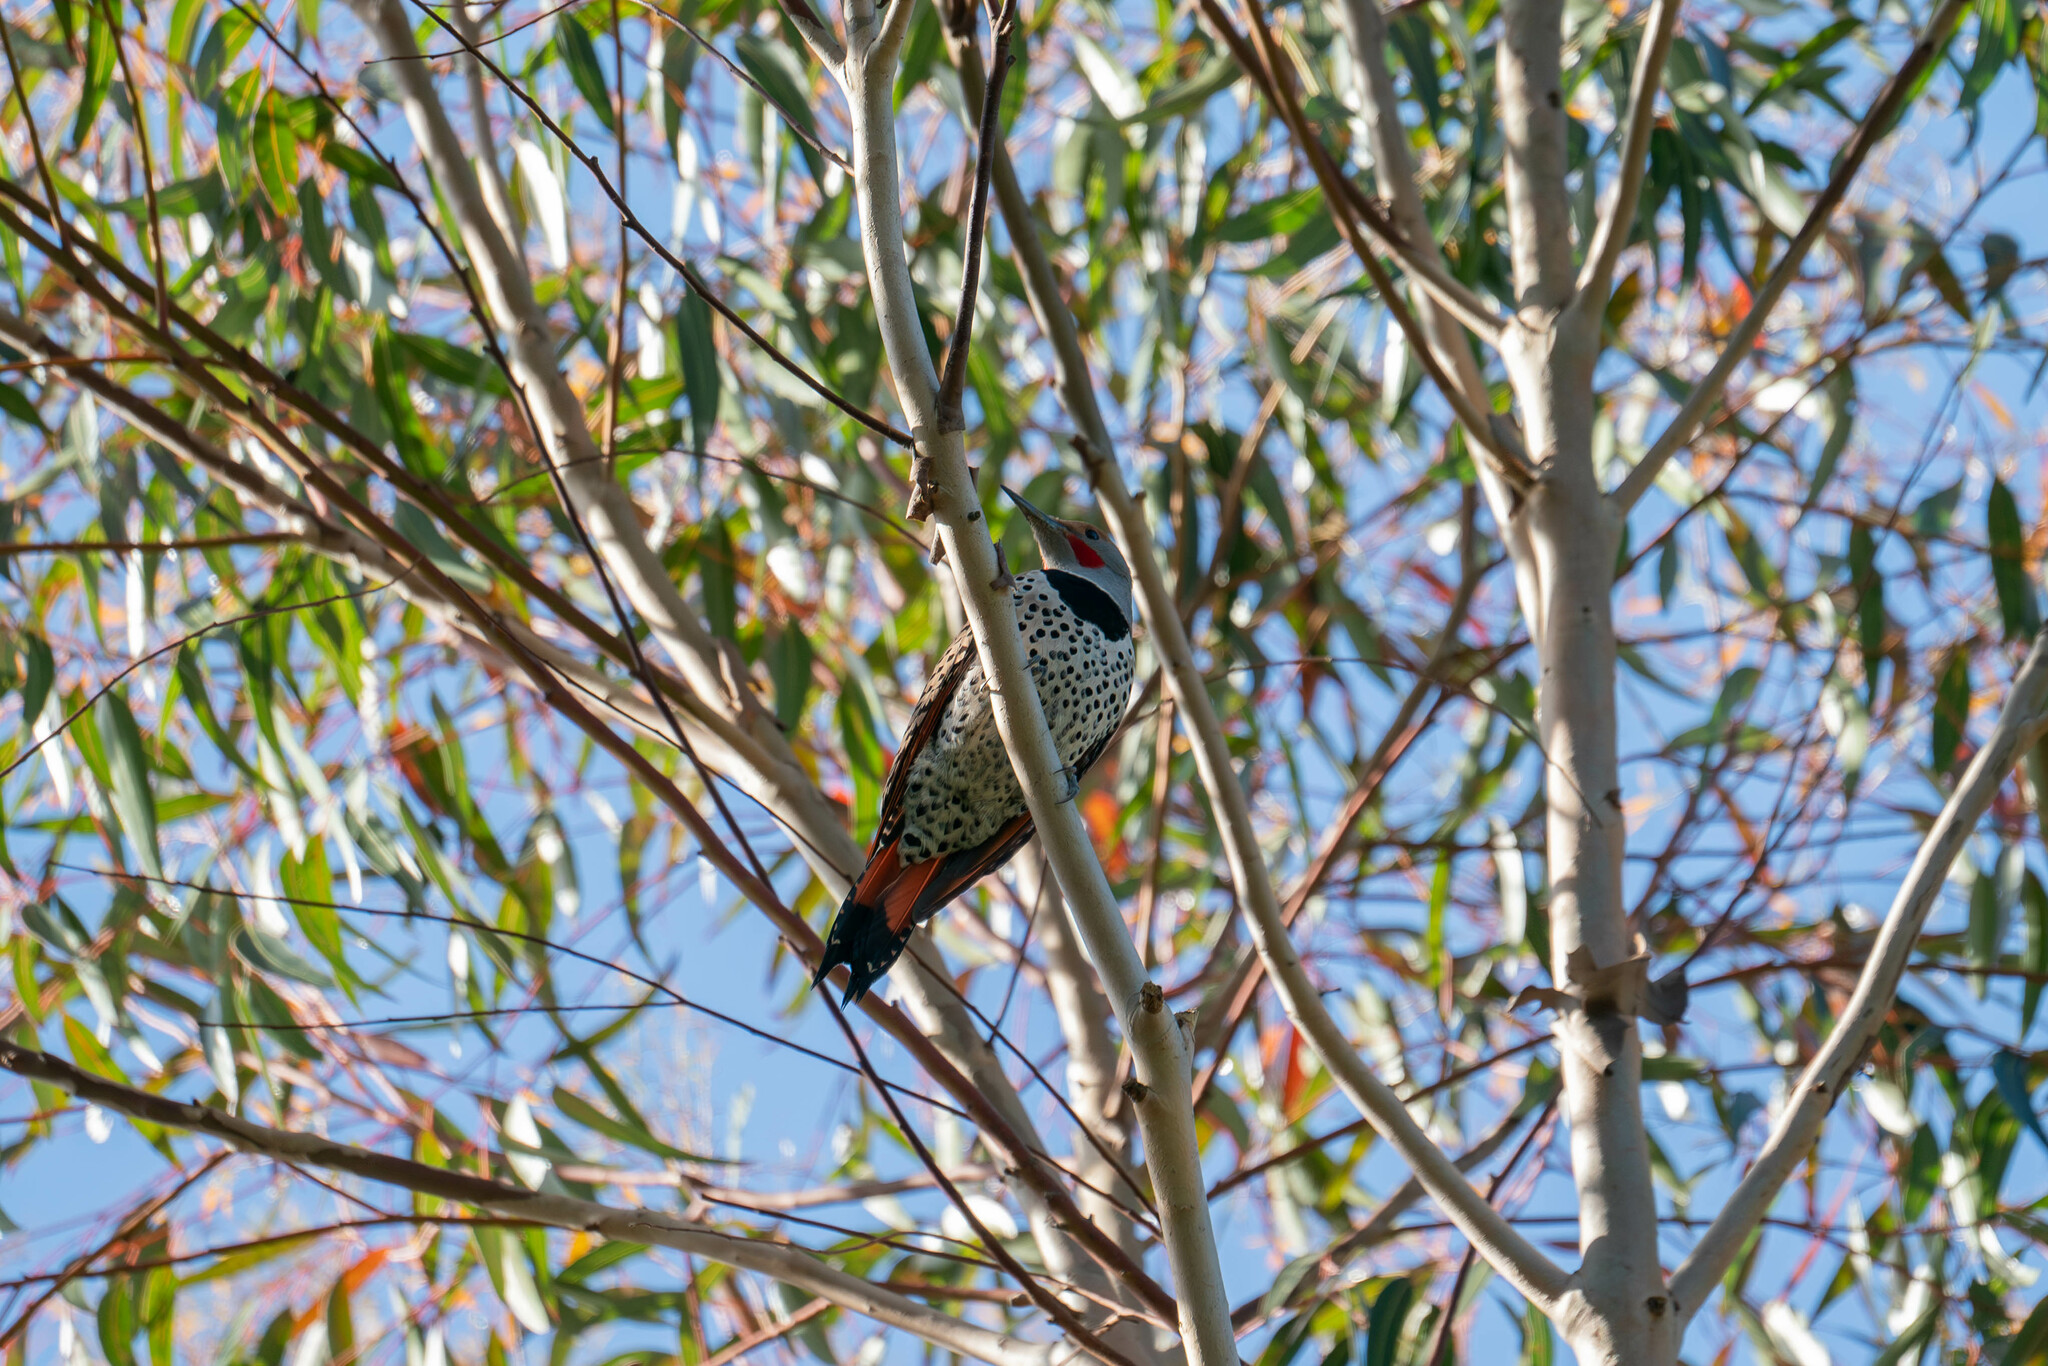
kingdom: Animalia
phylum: Chordata
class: Aves
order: Piciformes
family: Picidae
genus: Colaptes
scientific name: Colaptes auratus
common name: Northern flicker
